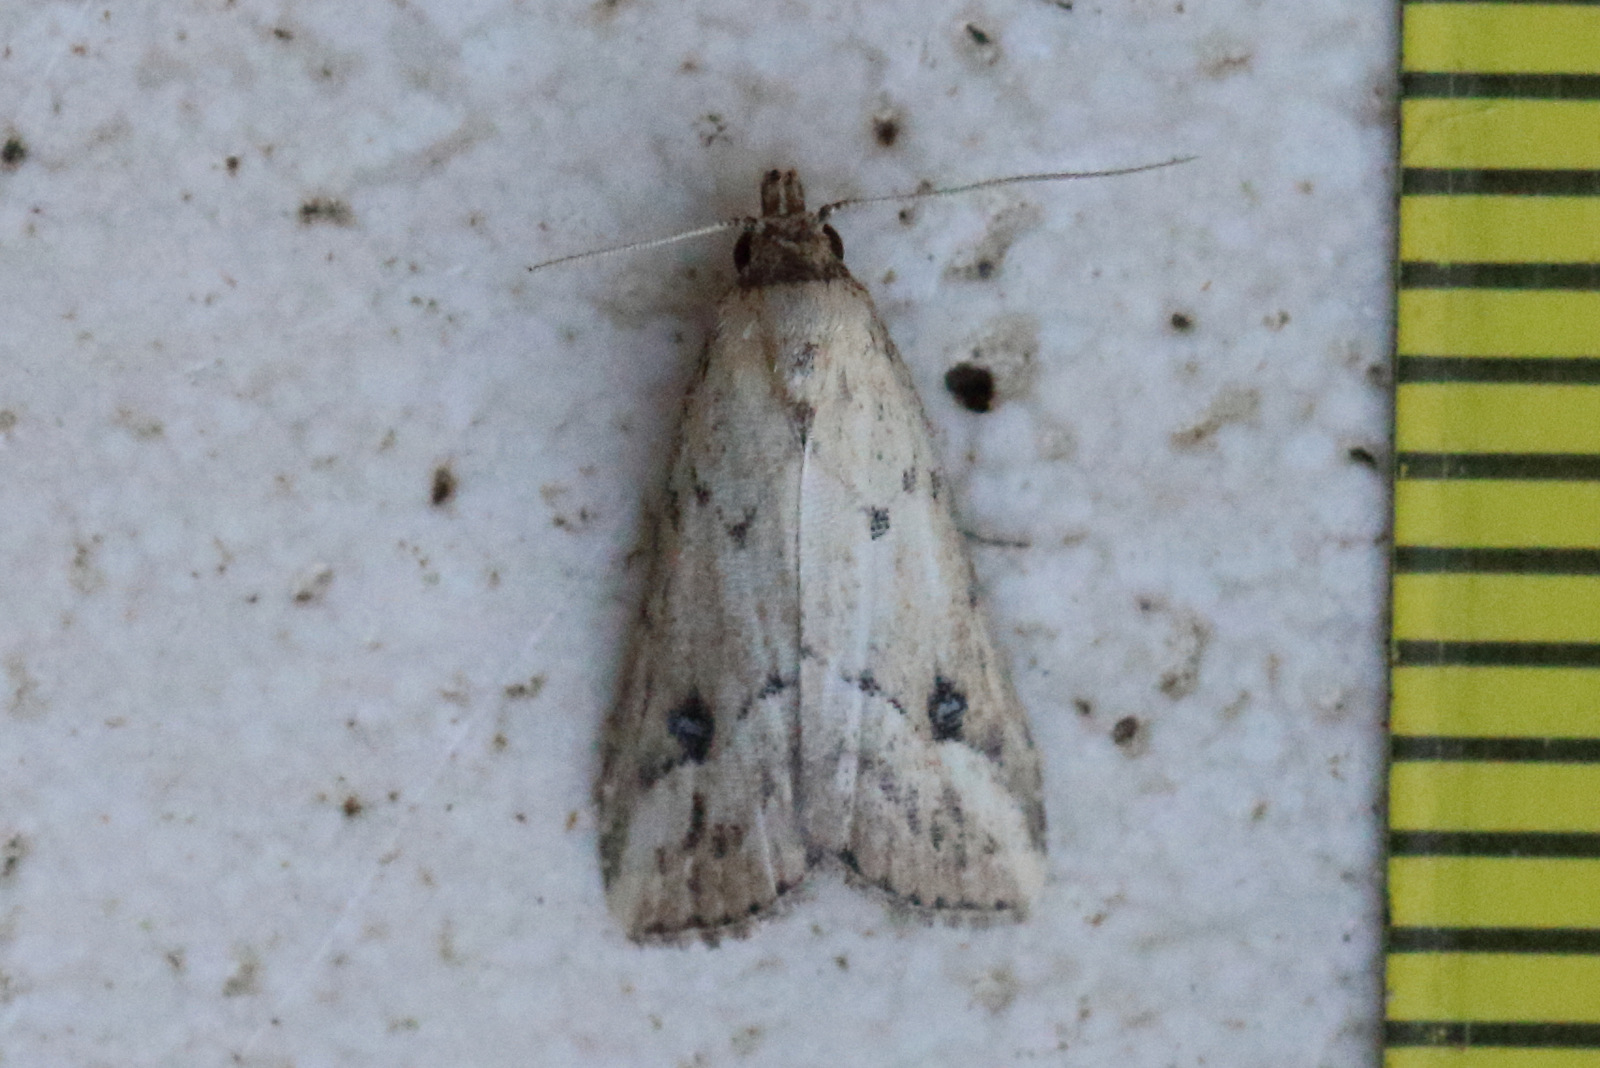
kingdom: Animalia
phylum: Arthropoda
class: Insecta
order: Lepidoptera
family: Erebidae
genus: Luceria
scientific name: Luceria oculalis
